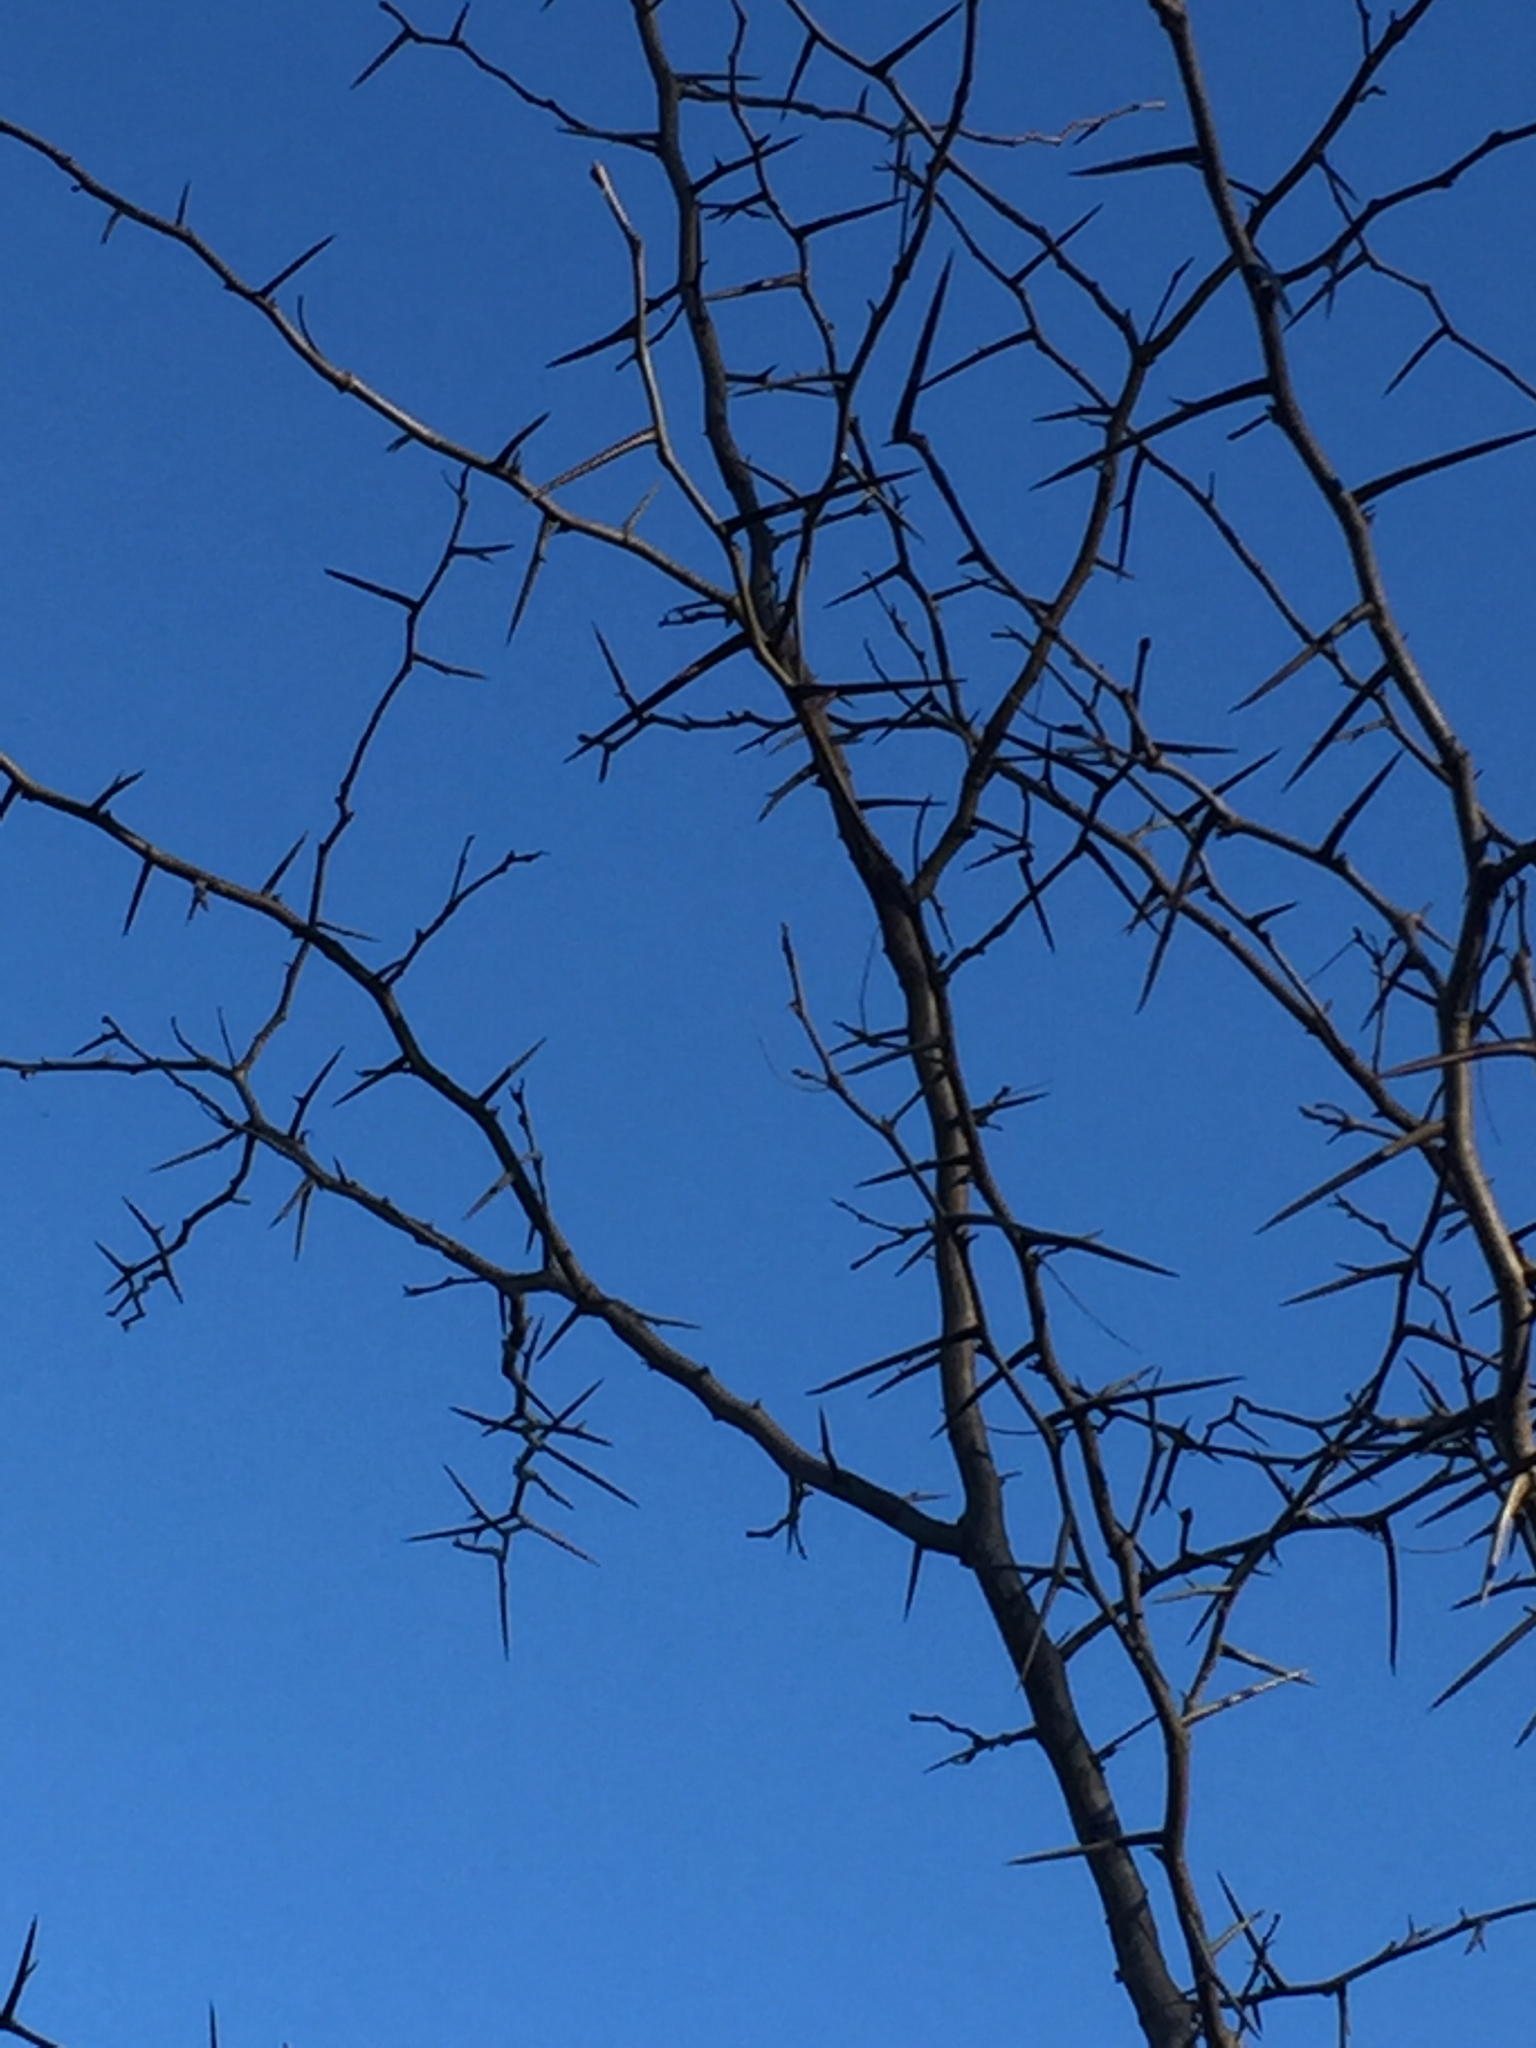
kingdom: Plantae
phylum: Tracheophyta
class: Magnoliopsida
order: Fabales
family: Fabaceae
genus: Gleditsia
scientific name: Gleditsia triacanthos
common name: Common honeylocust
